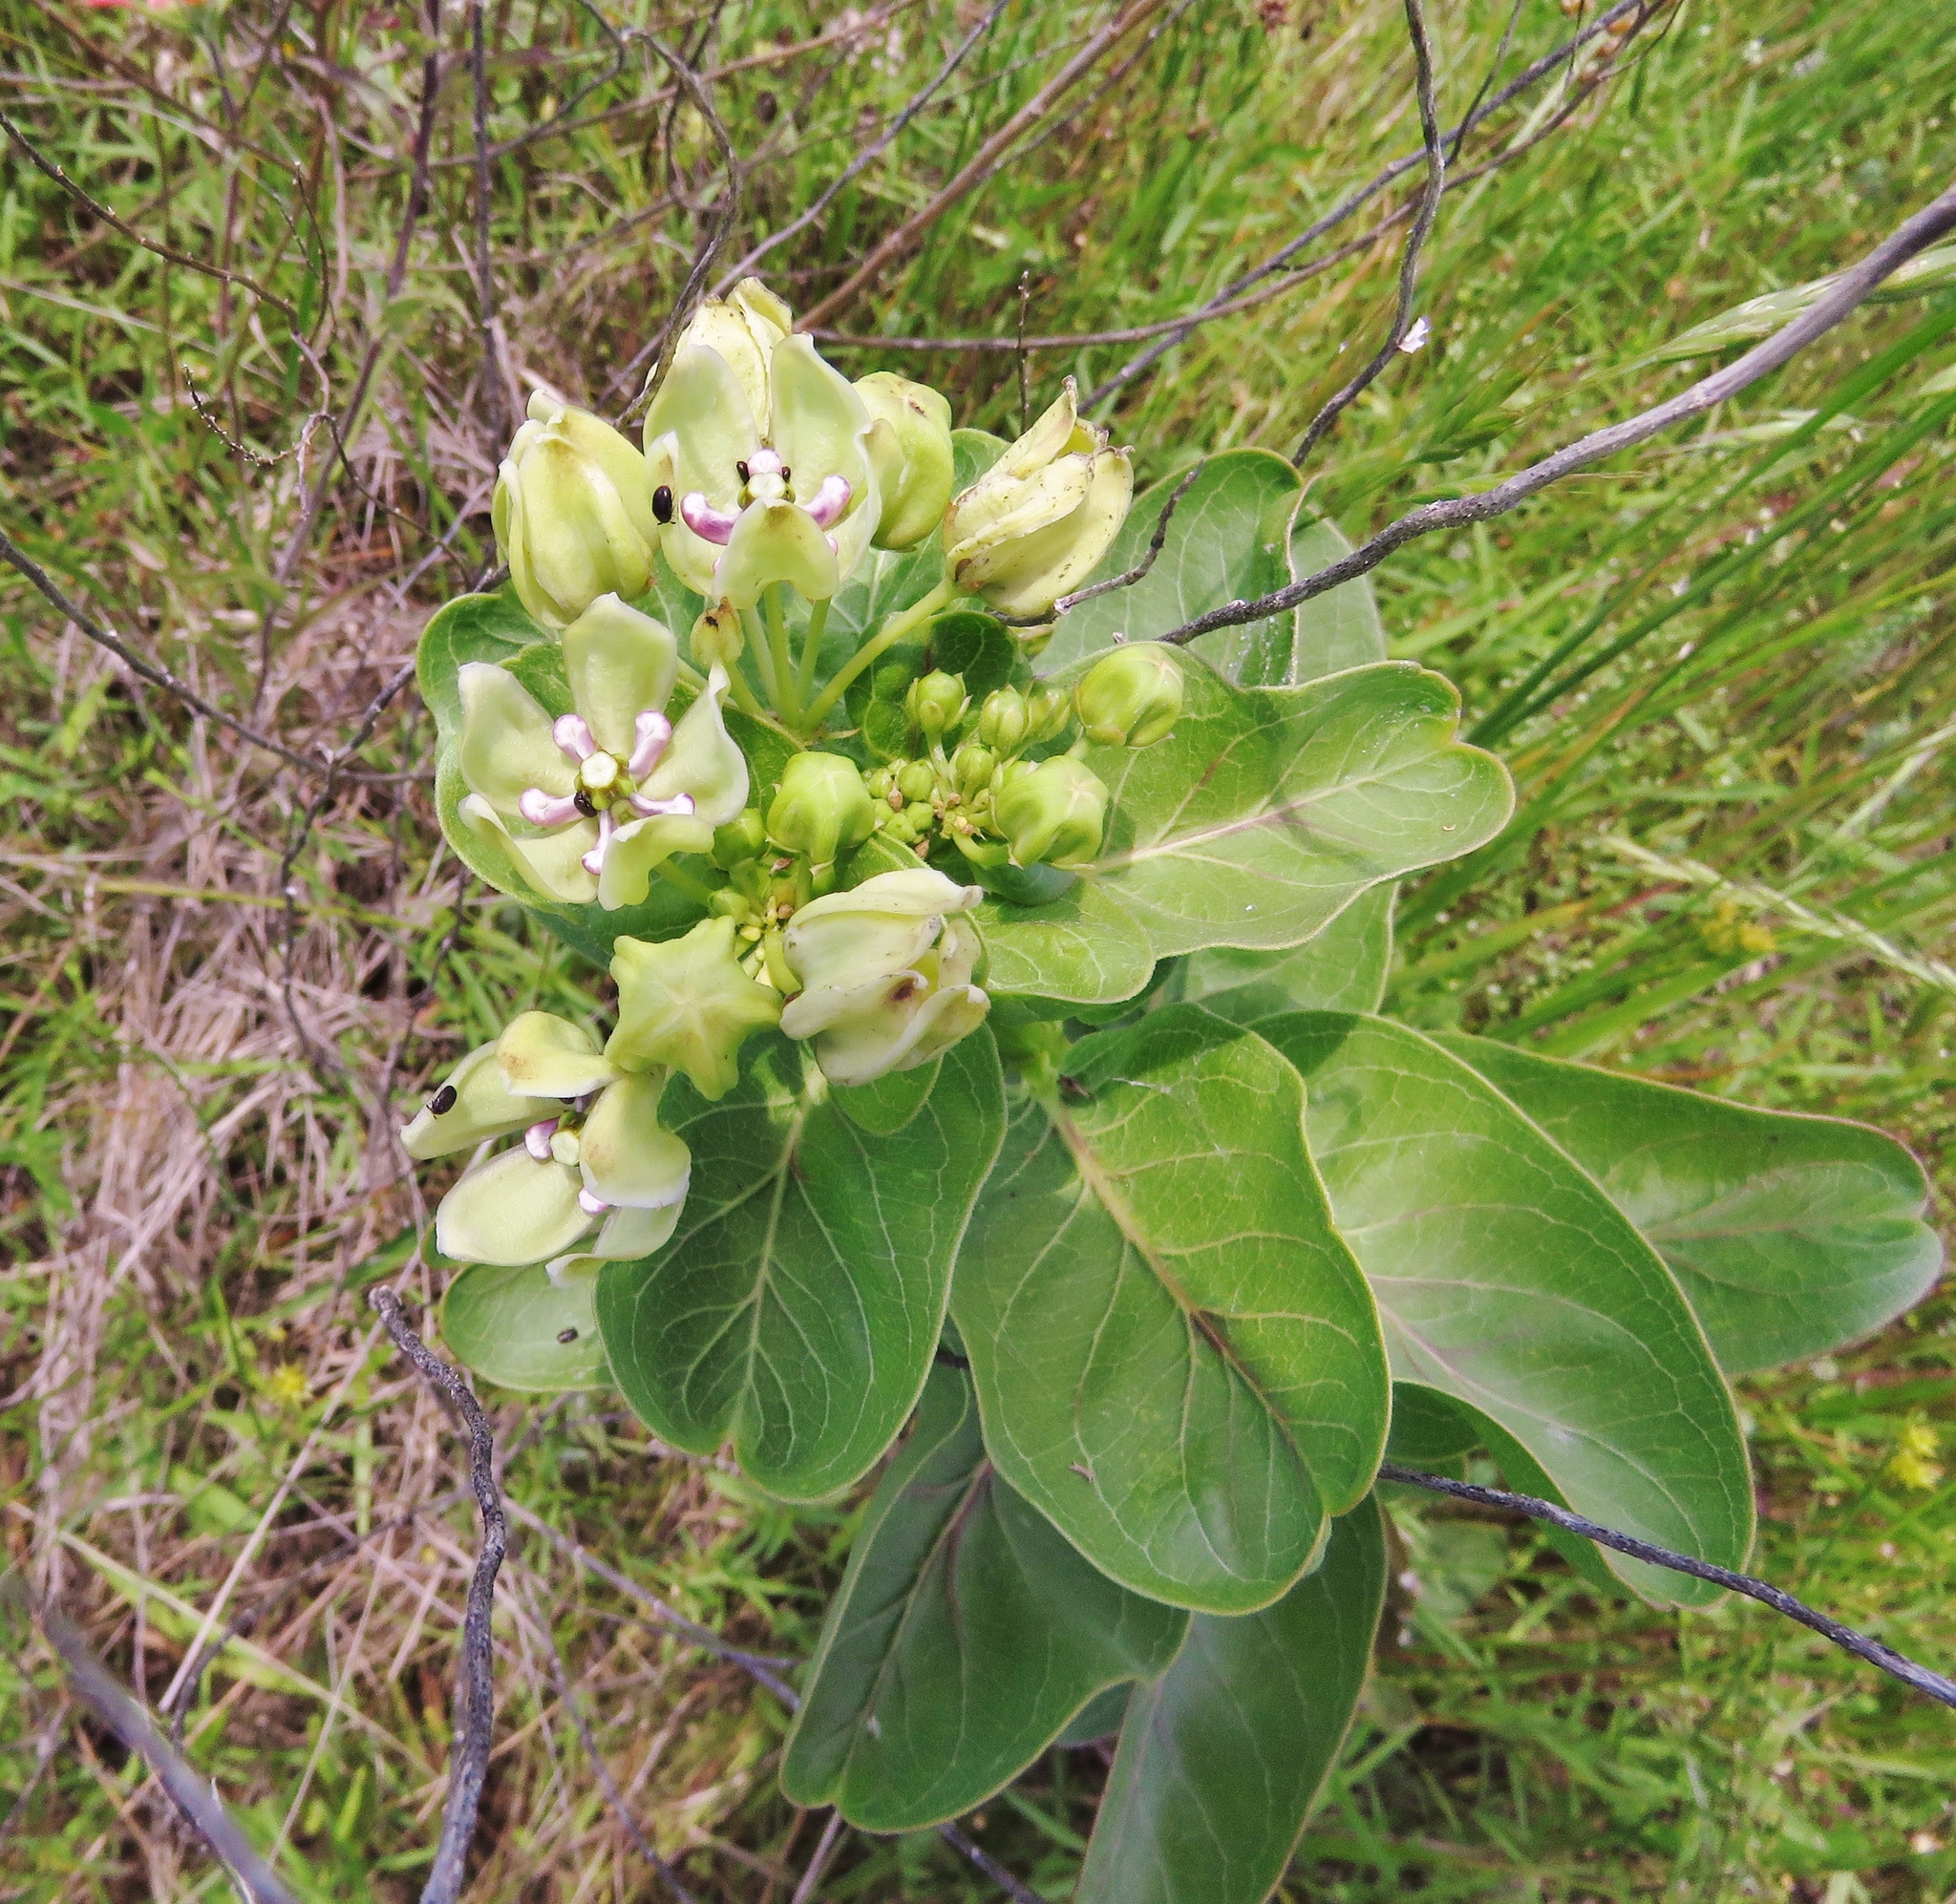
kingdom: Plantae
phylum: Tracheophyta
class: Magnoliopsida
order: Gentianales
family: Apocynaceae
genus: Asclepias
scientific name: Asclepias viridis
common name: Antelope-horns
